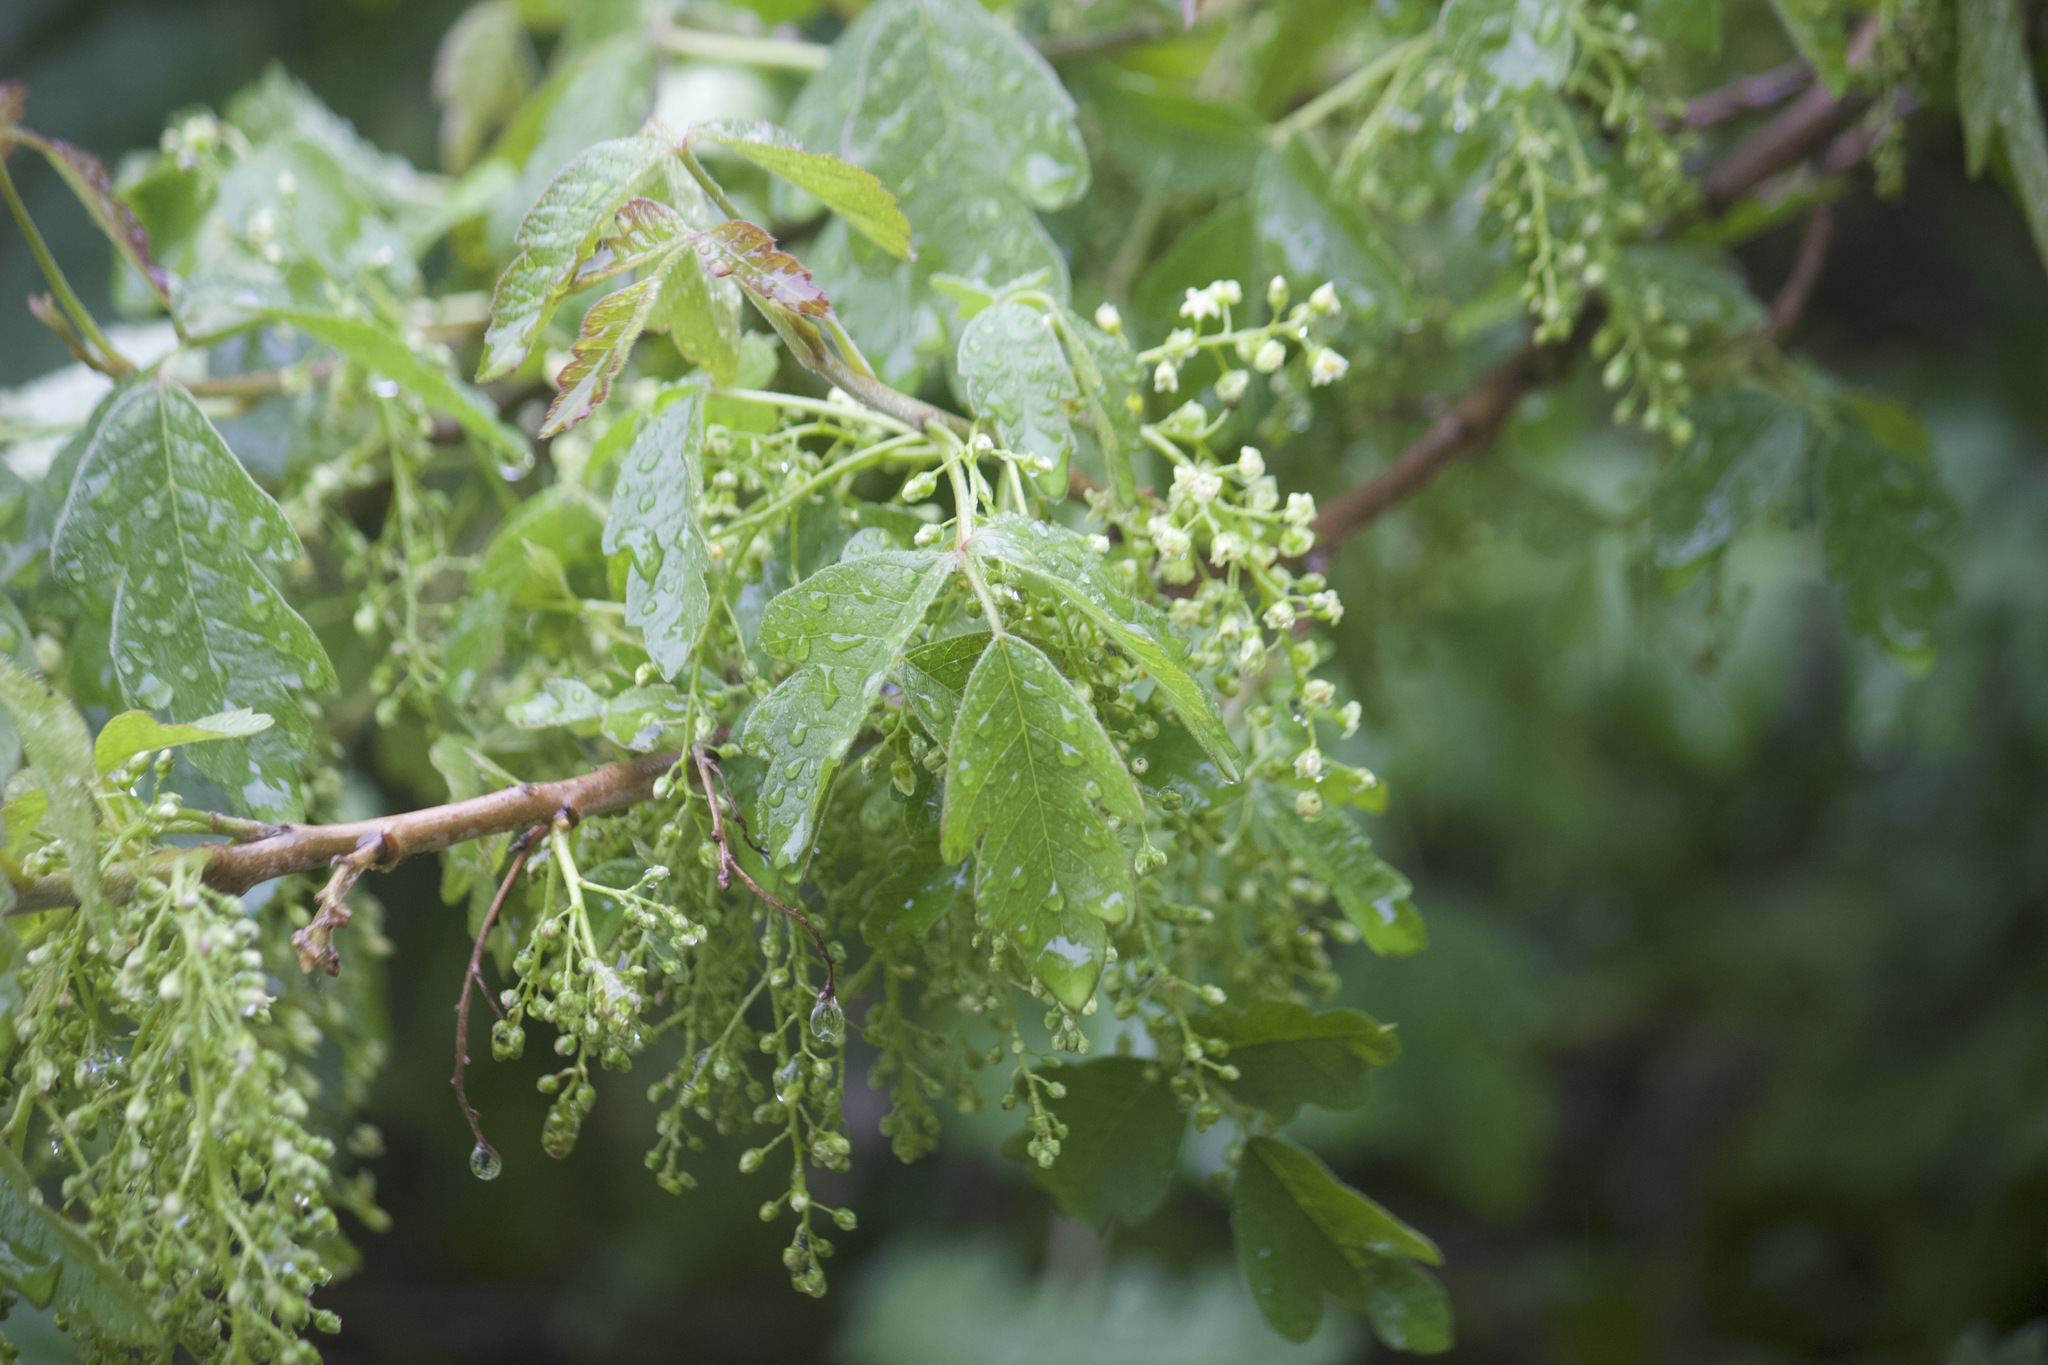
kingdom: Plantae
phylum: Tracheophyta
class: Magnoliopsida
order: Sapindales
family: Anacardiaceae
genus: Toxicodendron
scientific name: Toxicodendron diversilobum
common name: Pacific poison-oak
